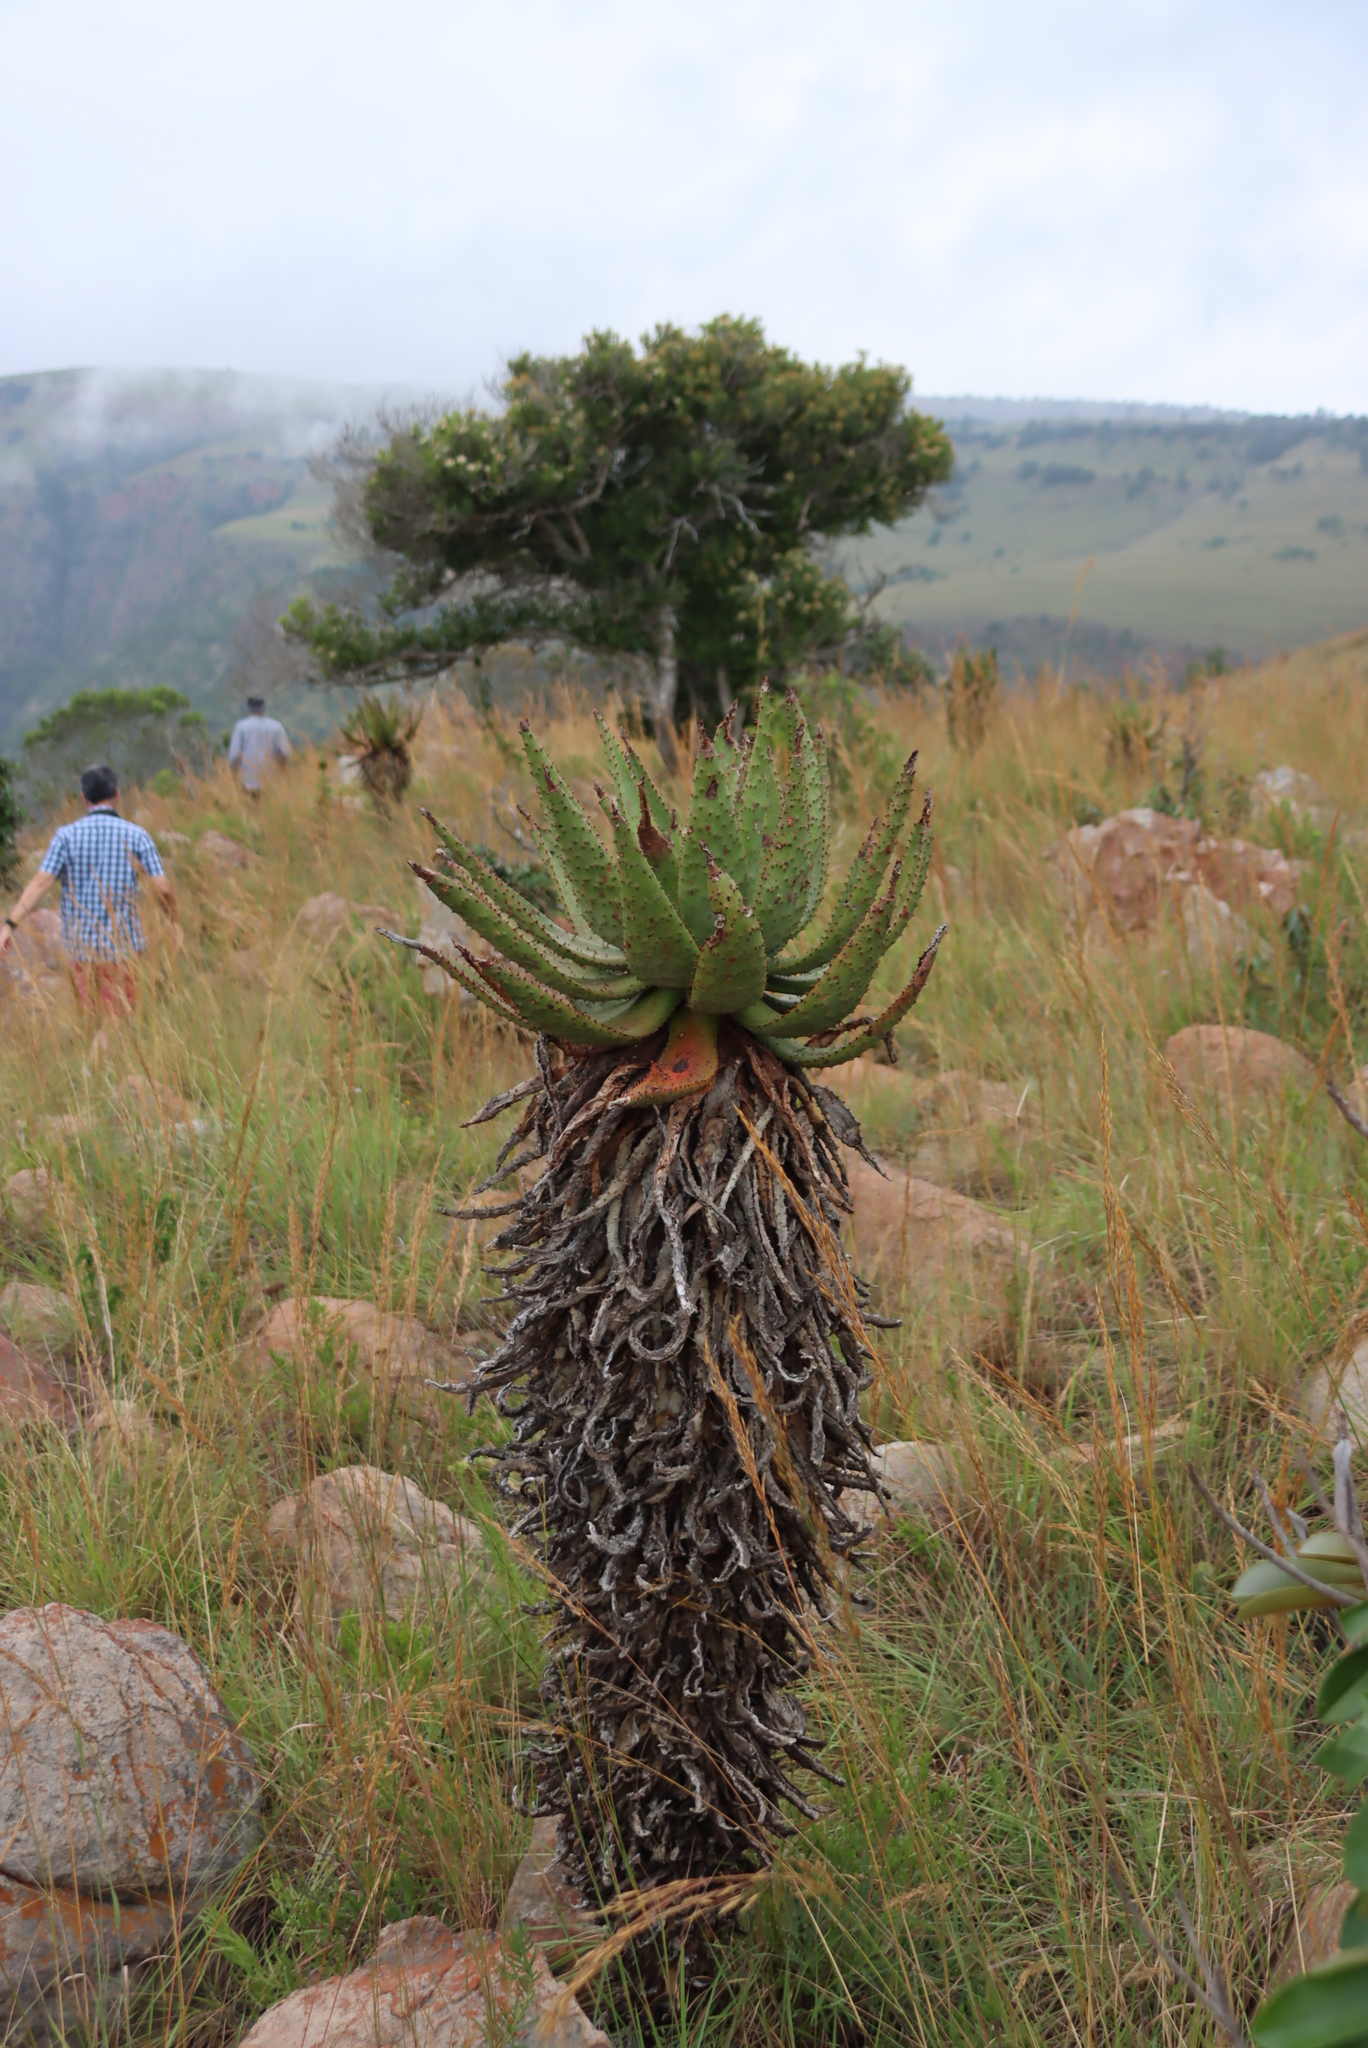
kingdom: Plantae
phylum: Tracheophyta
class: Liliopsida
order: Asparagales
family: Asphodelaceae
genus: Aloe
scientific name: Aloe marlothii
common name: Flat-flowered aloe
